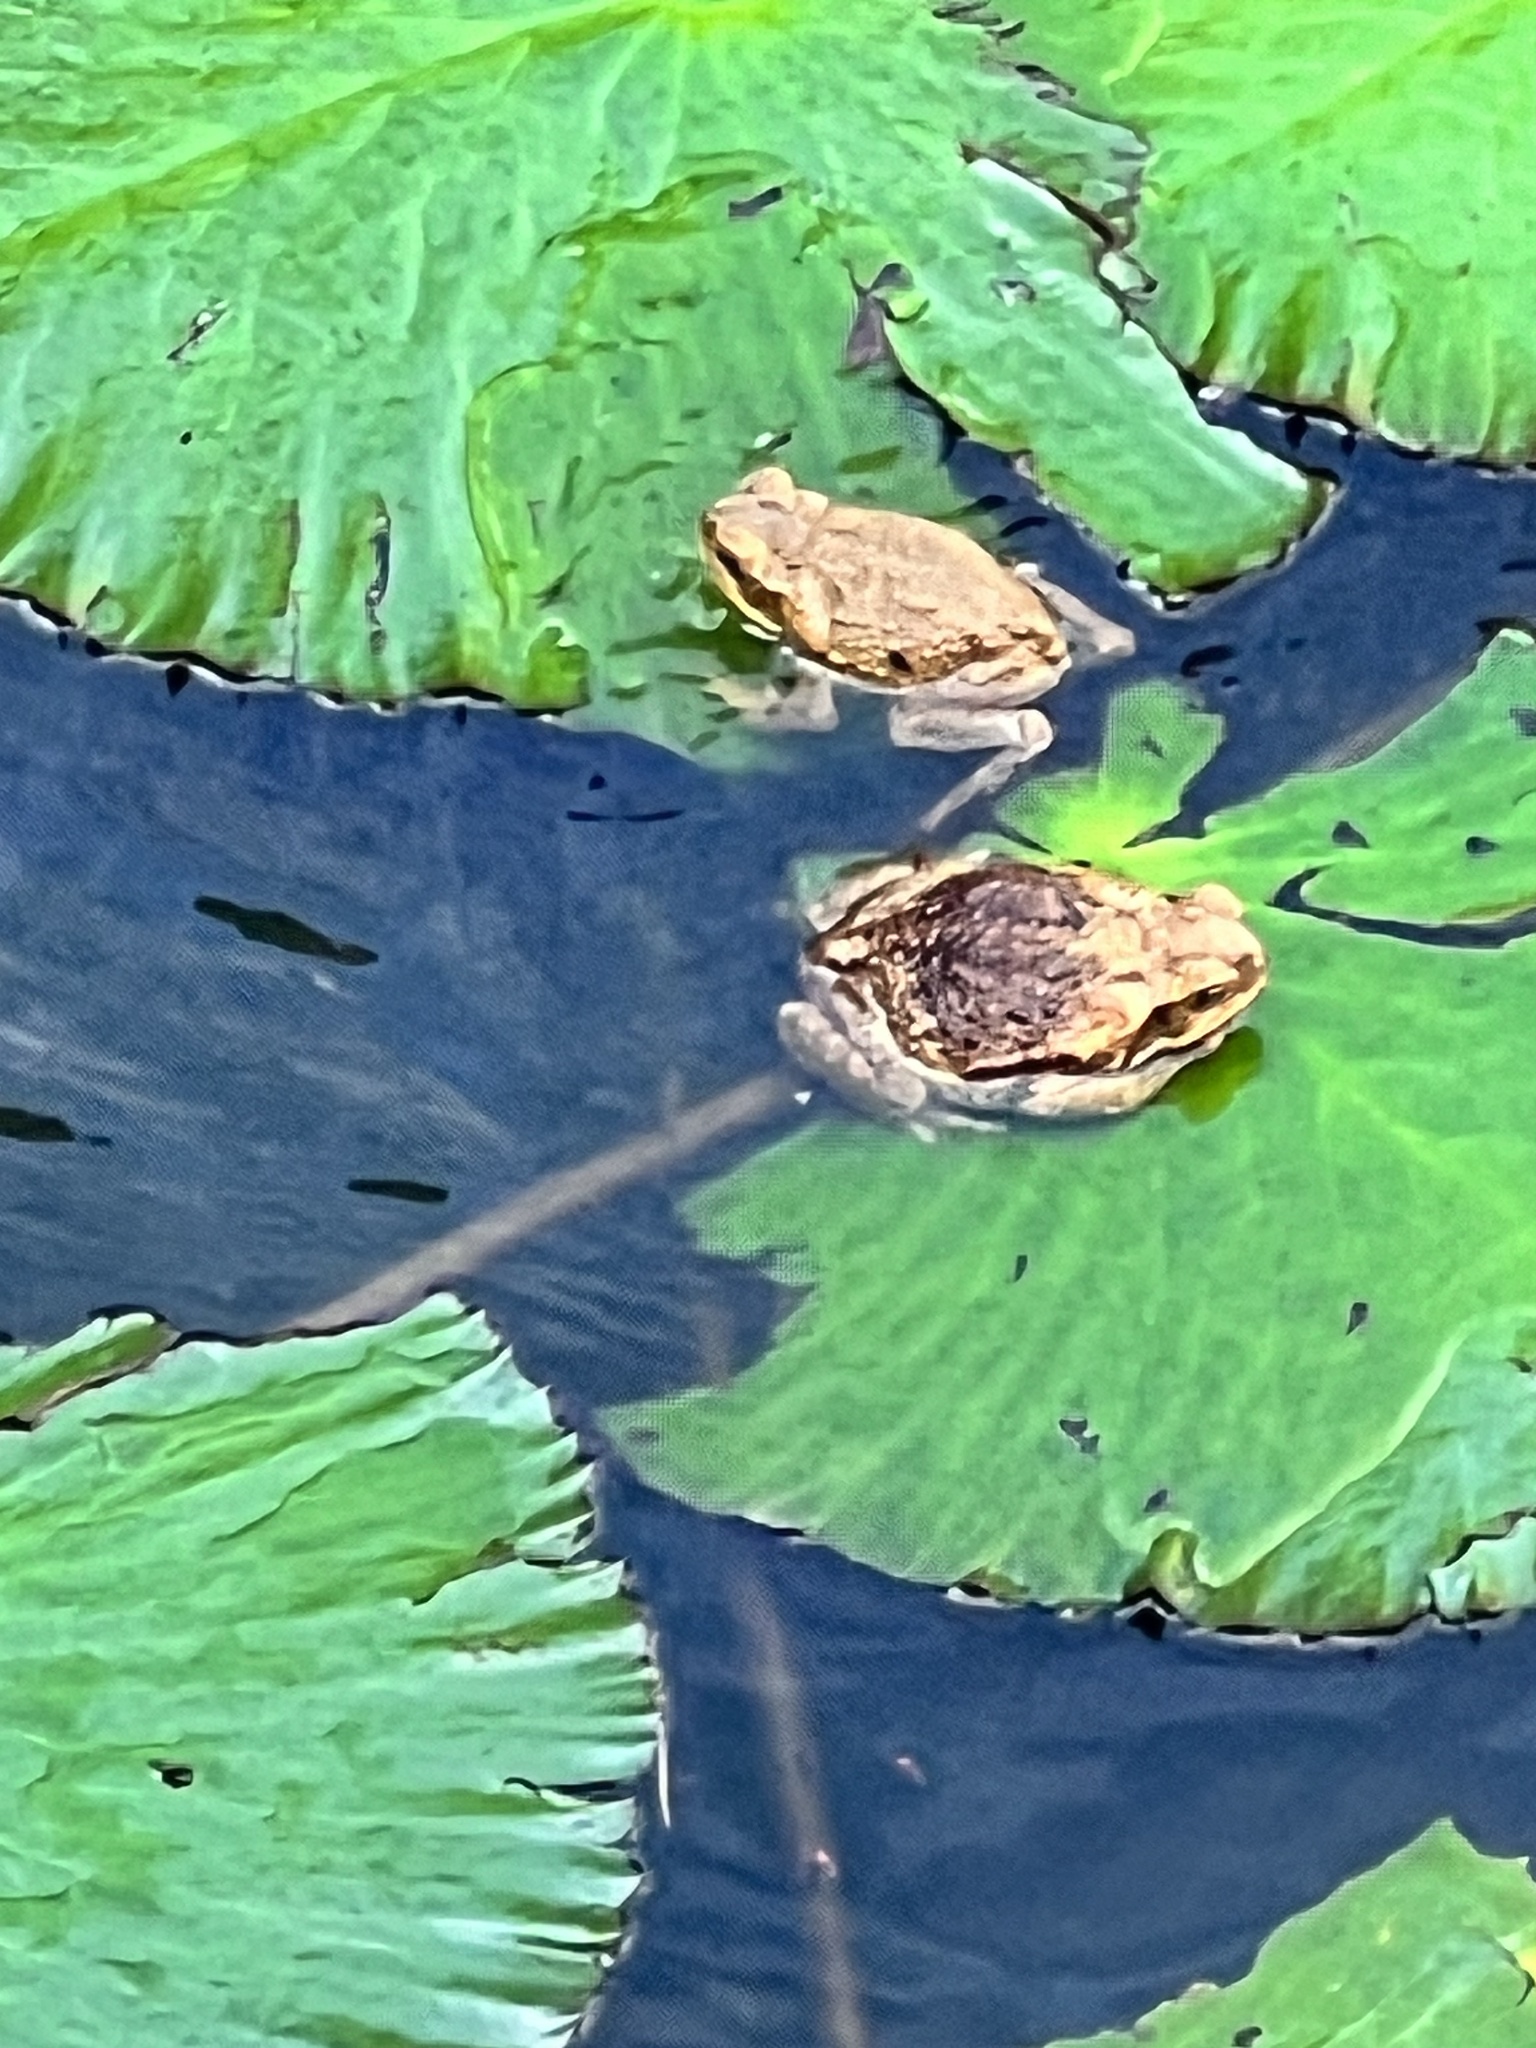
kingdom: Animalia
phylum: Chordata
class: Amphibia
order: Anura
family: Bufonidae
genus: Rhinella
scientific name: Rhinella marina
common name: Cane toad
